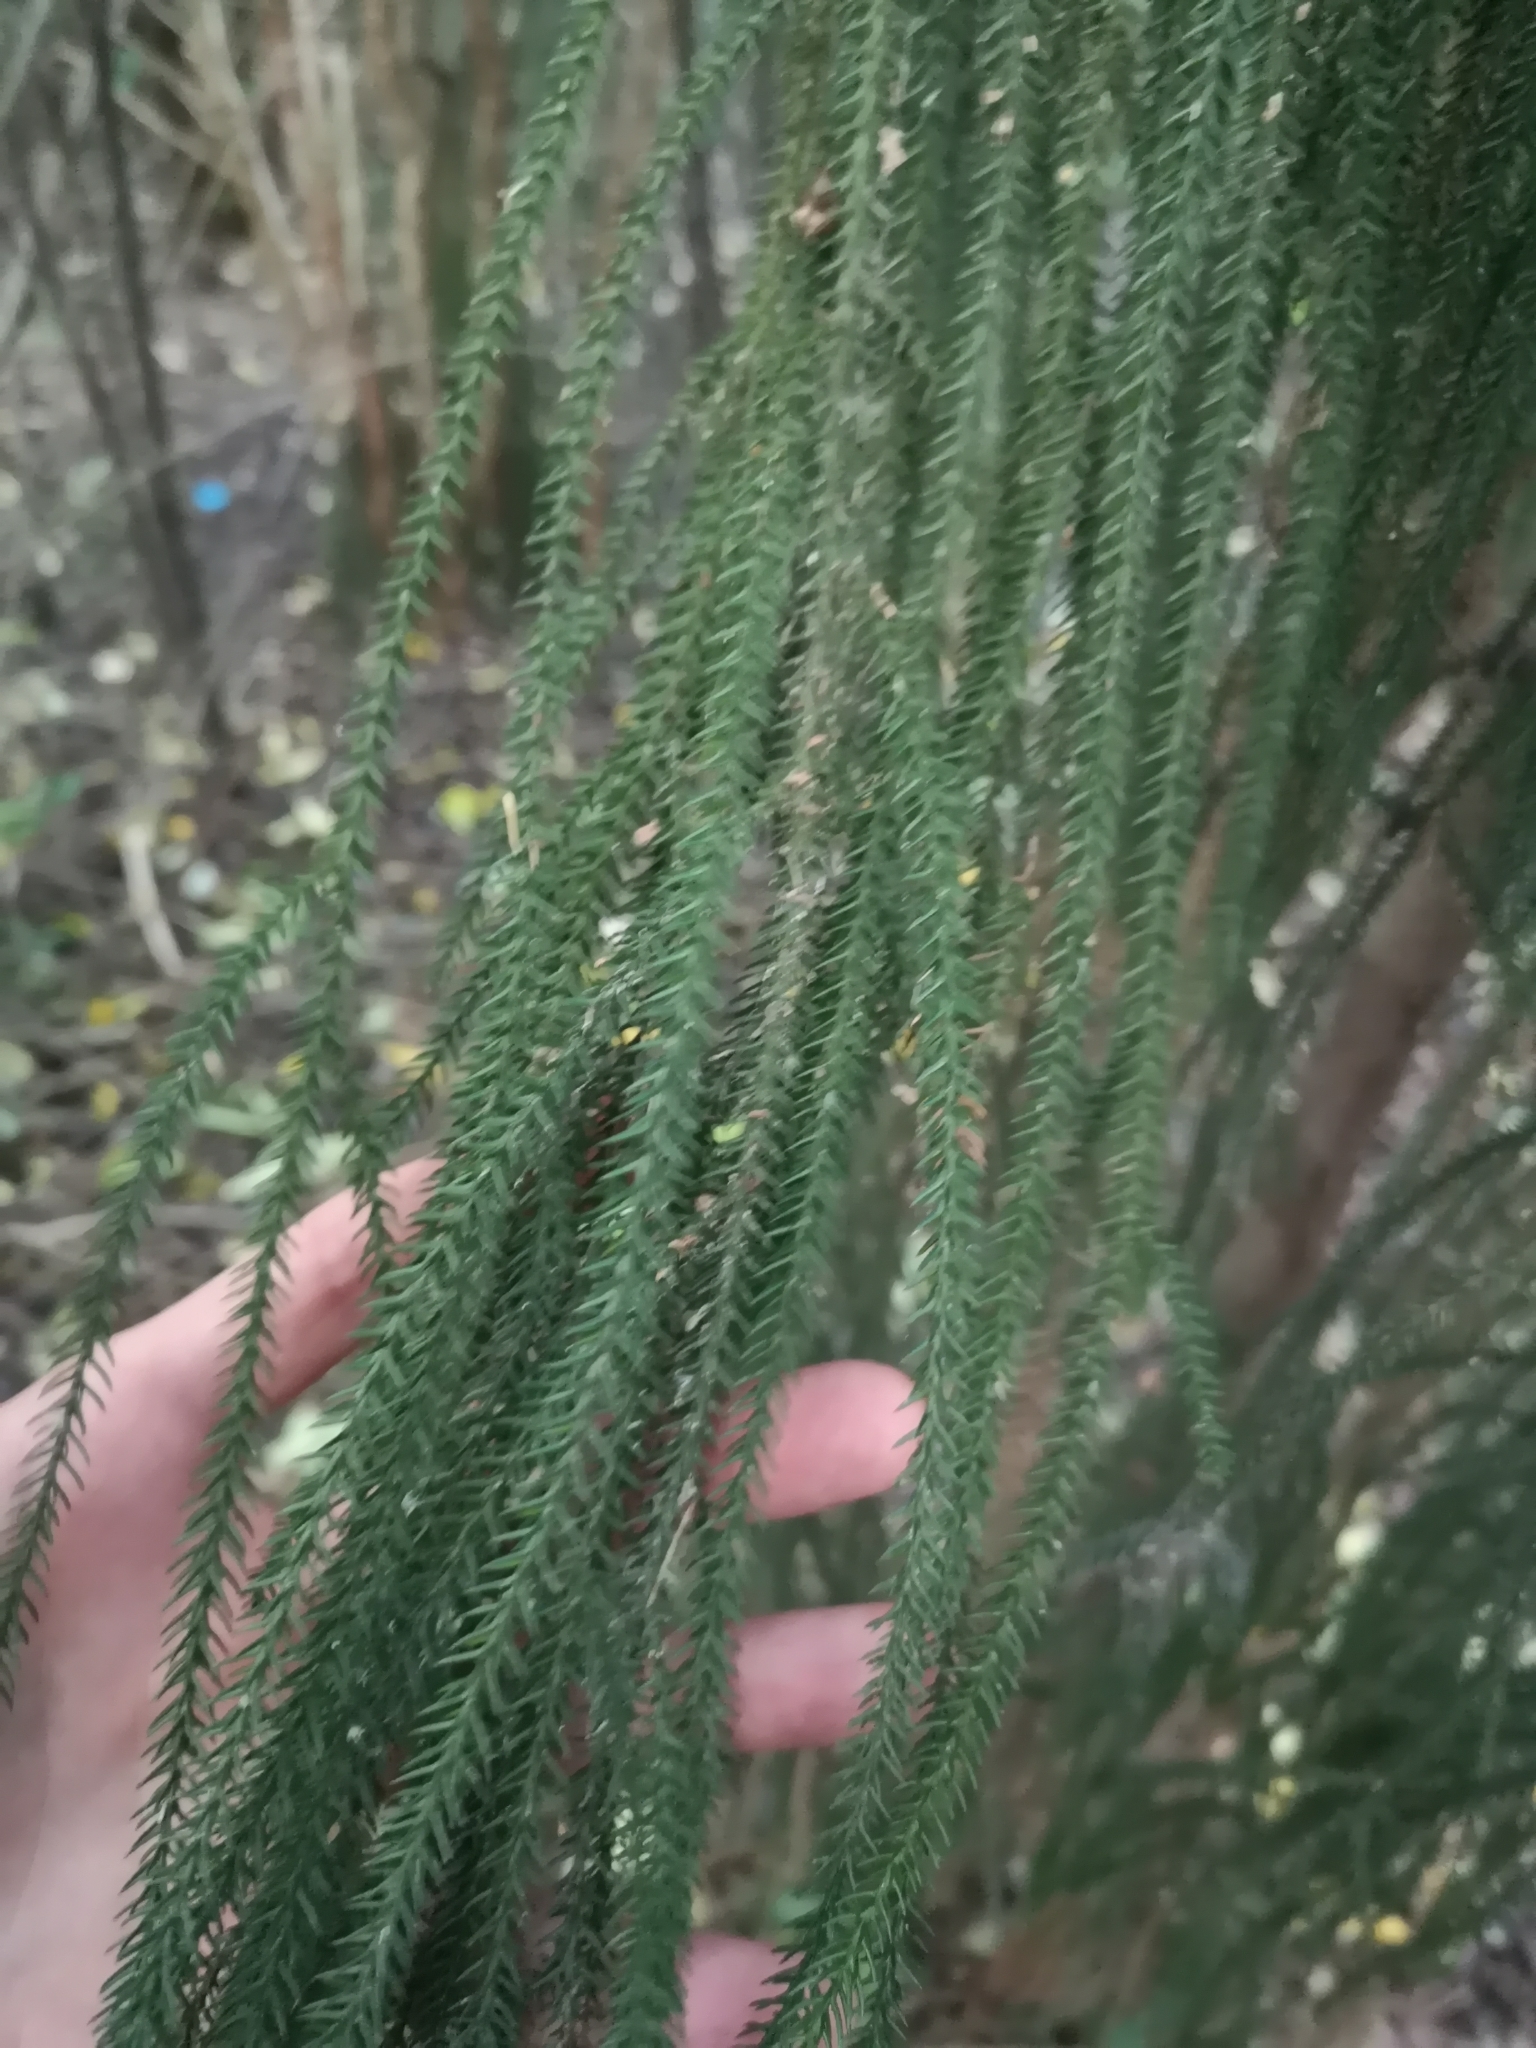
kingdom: Plantae
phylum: Tracheophyta
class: Pinopsida
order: Pinales
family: Podocarpaceae
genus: Dacrydium
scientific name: Dacrydium cupressinum
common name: Red pine
